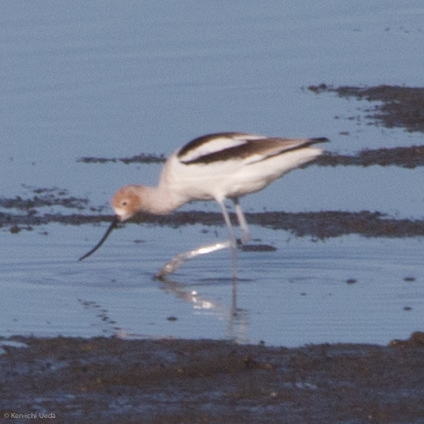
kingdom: Animalia
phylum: Chordata
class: Aves
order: Charadriiformes
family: Recurvirostridae
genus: Recurvirostra
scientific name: Recurvirostra americana
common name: American avocet
